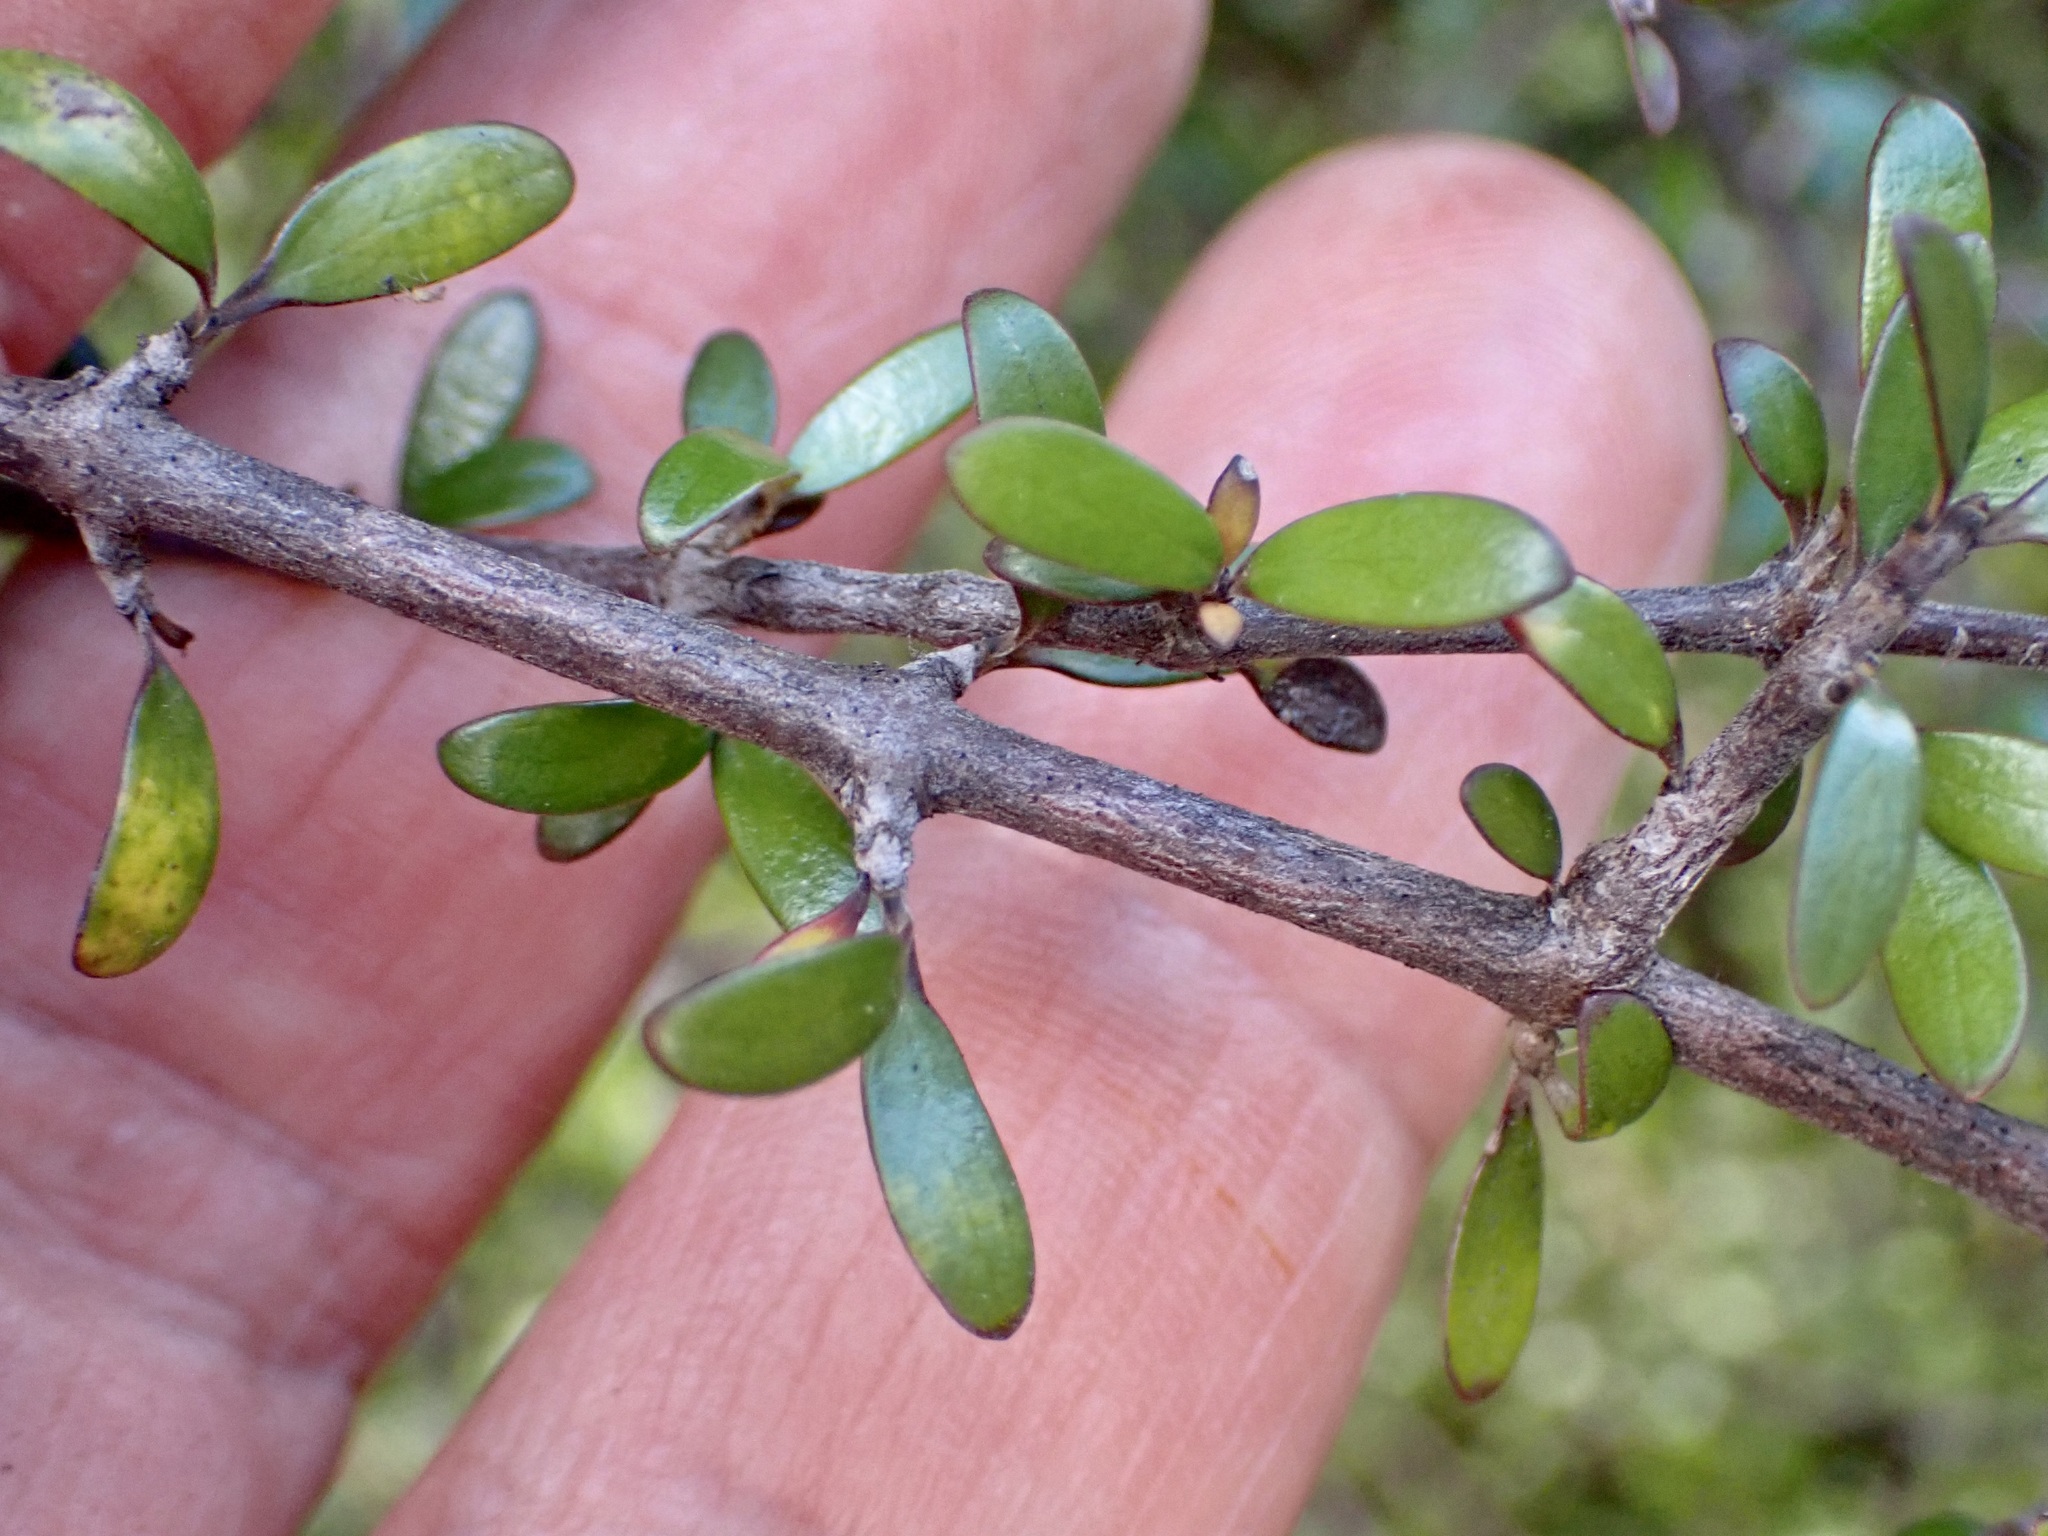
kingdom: Plantae
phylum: Tracheophyta
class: Magnoliopsida
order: Gentianales
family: Rubiaceae
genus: Coprosma
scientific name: Coprosma propinqua
